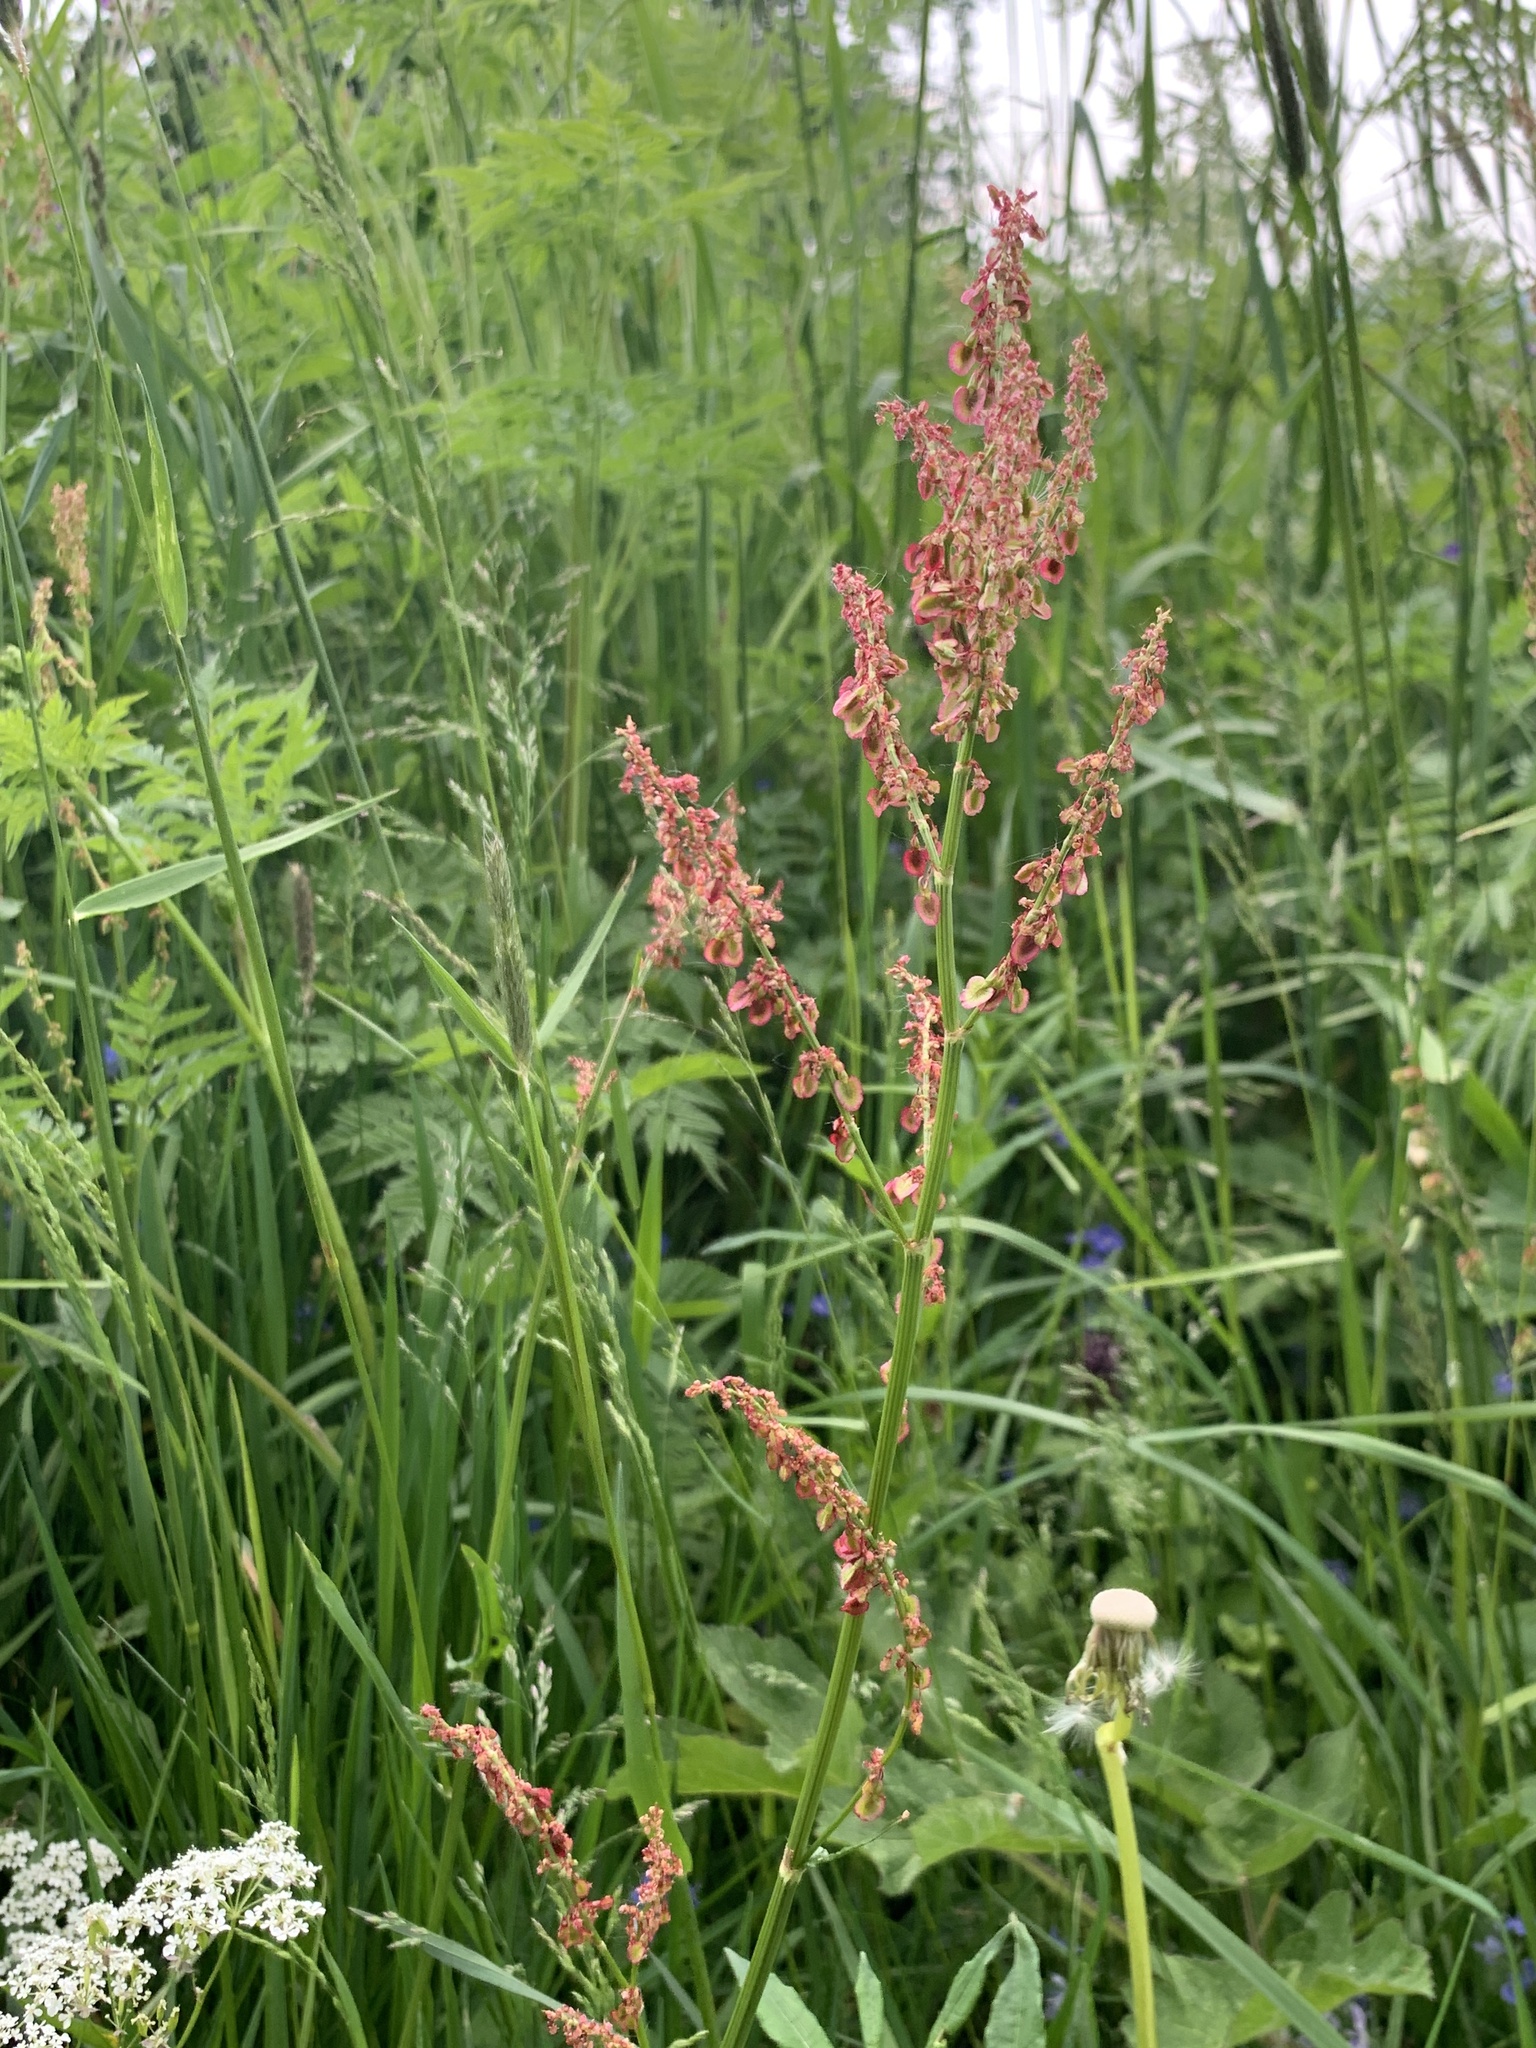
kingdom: Plantae
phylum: Tracheophyta
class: Magnoliopsida
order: Caryophyllales
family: Polygonaceae
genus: Rumex
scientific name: Rumex acetosa
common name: Garden sorrel
